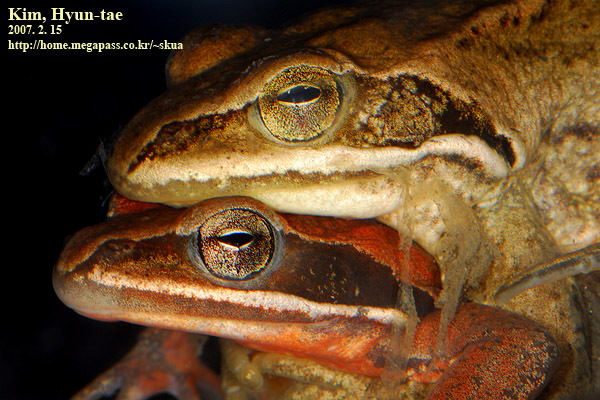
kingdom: Animalia
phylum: Chordata
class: Amphibia
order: Anura
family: Ranidae
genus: Rana
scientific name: Rana coreana
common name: Korean brown frog
